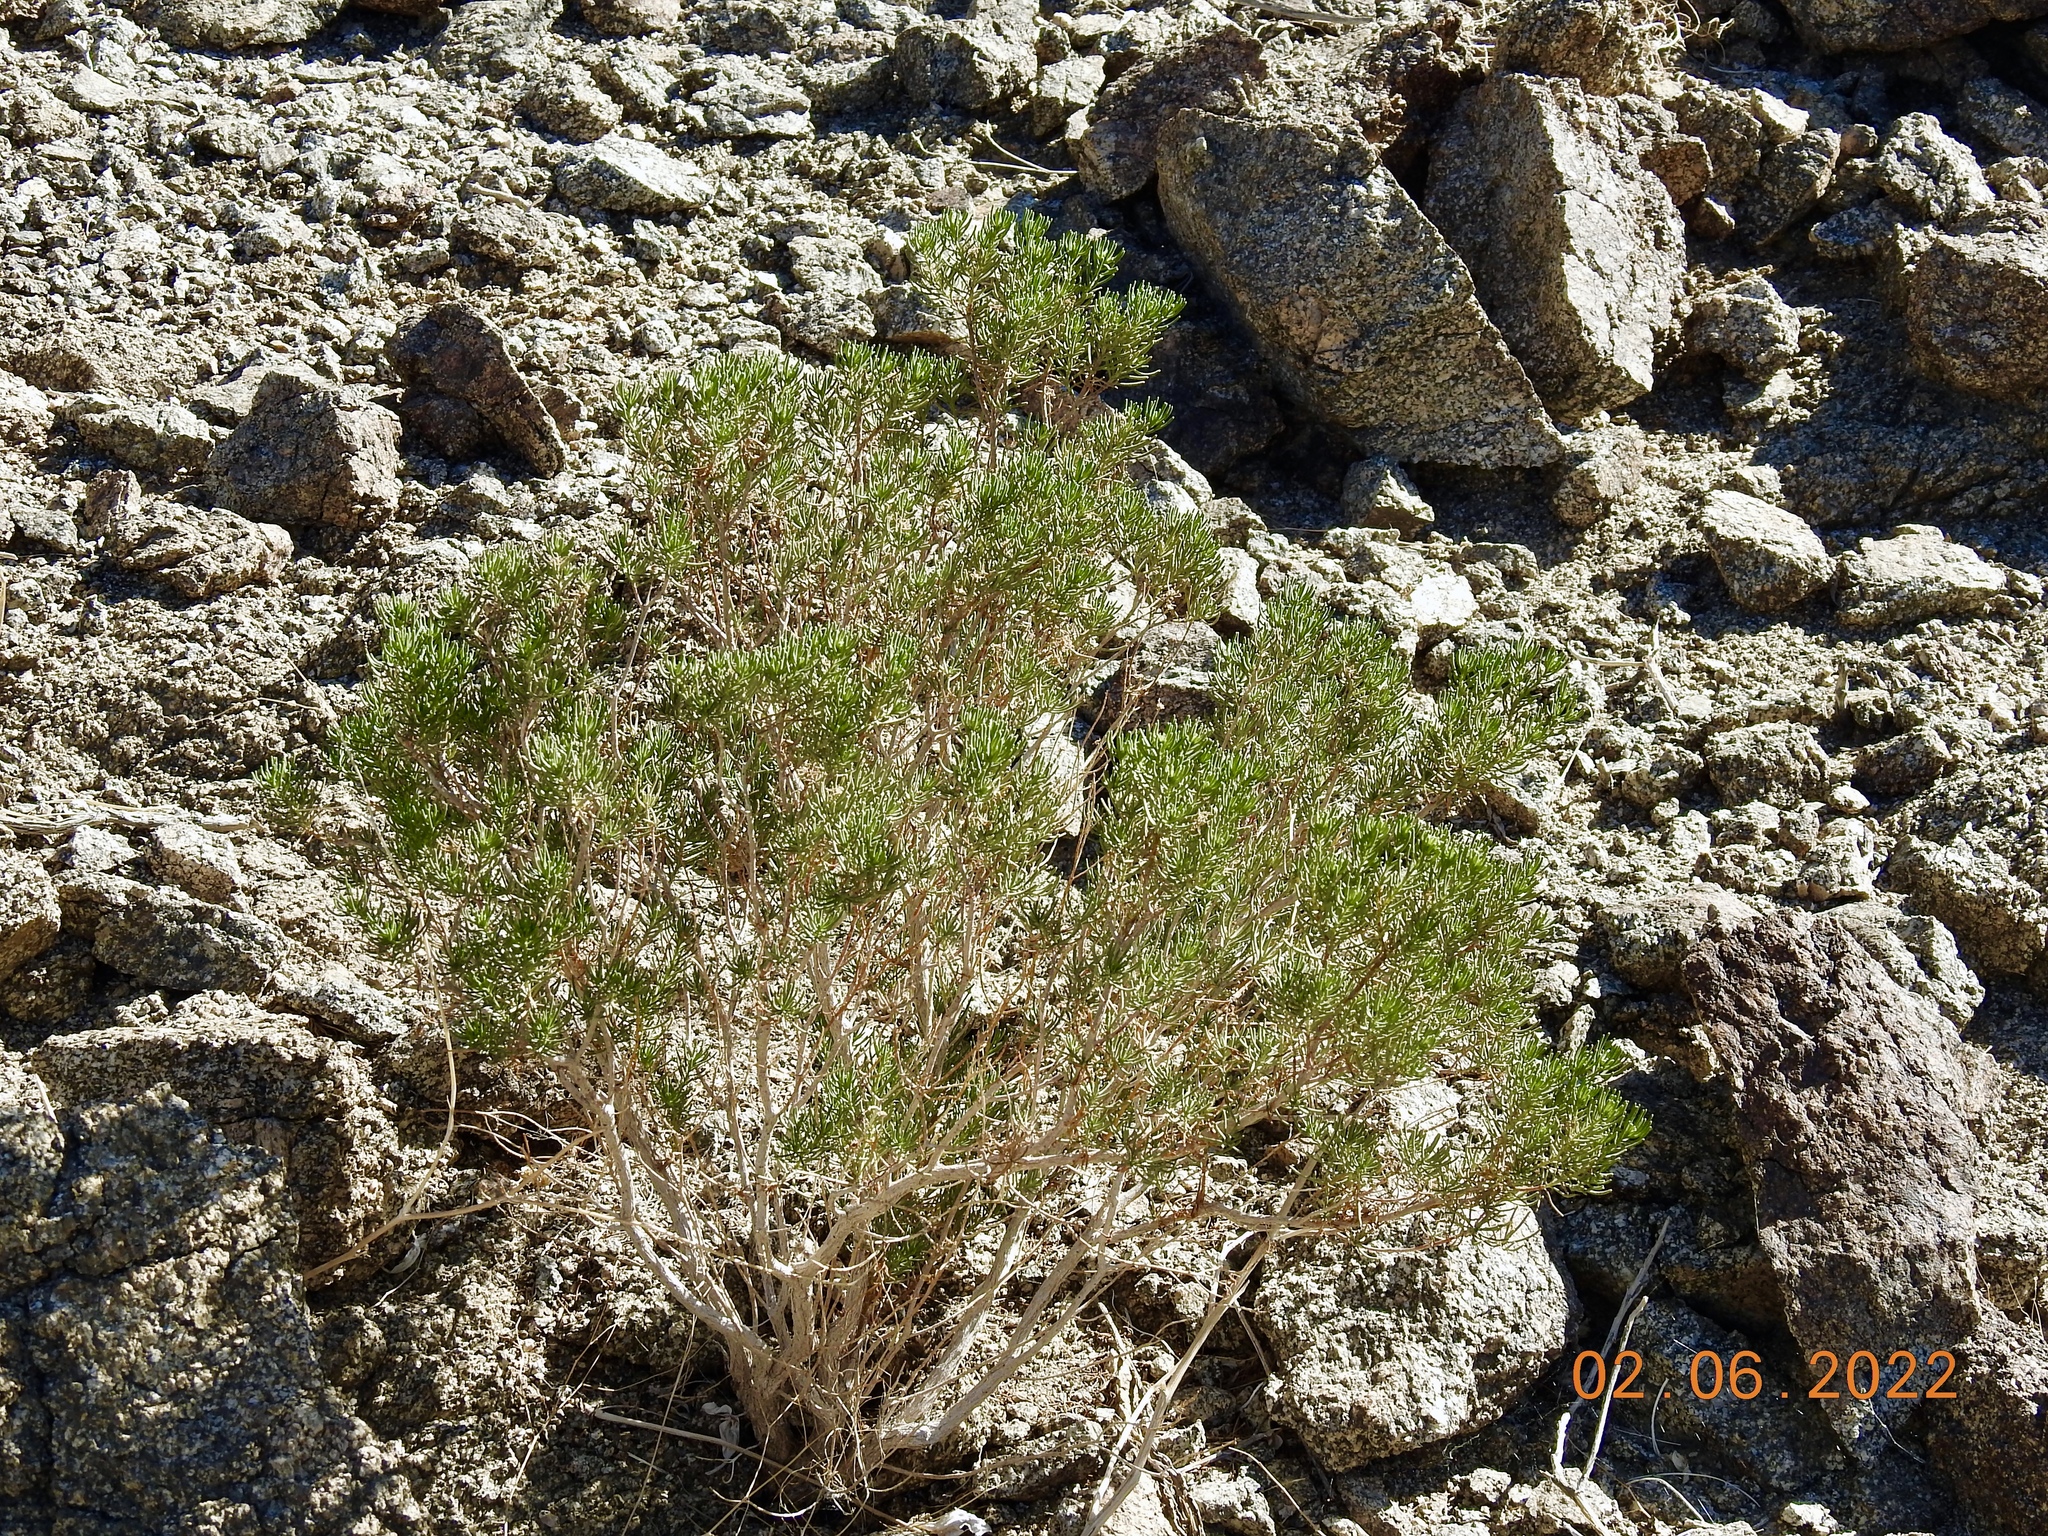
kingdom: Plantae
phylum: Tracheophyta
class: Magnoliopsida
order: Asterales
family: Asteraceae
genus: Peucephyllum
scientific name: Peucephyllum schottii
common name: Pygmy-cedar
